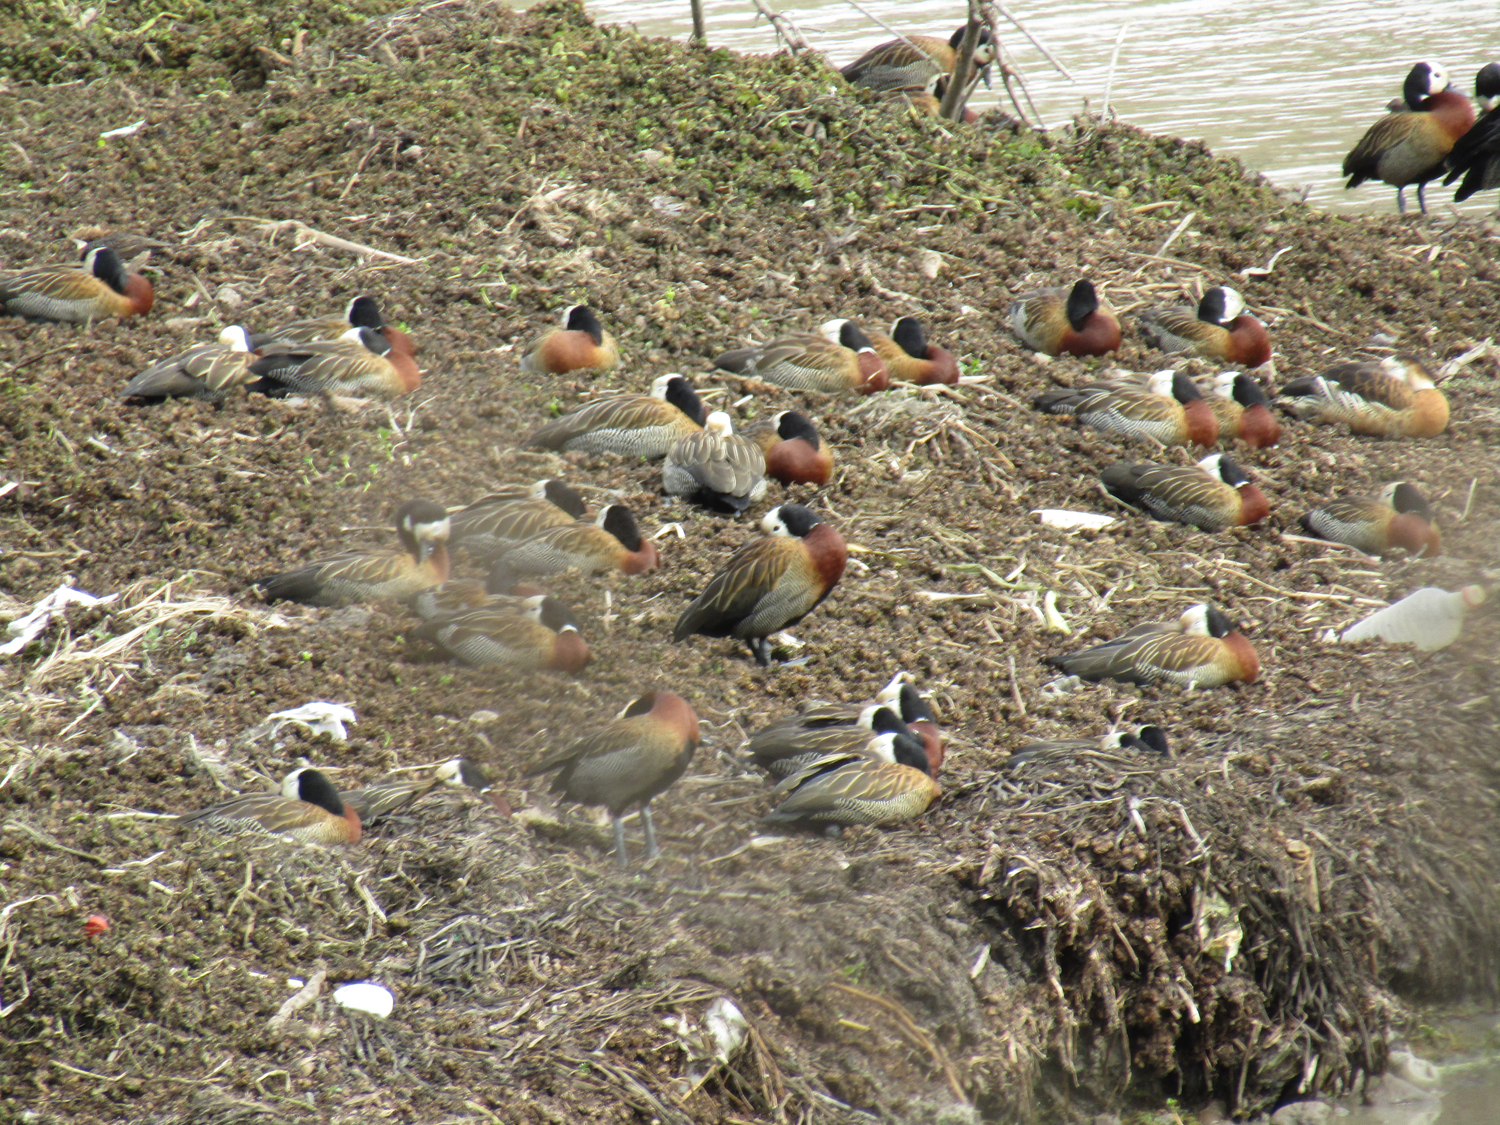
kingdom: Animalia
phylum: Chordata
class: Aves
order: Anseriformes
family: Anatidae
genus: Dendrocygna
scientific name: Dendrocygna viduata
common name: White-faced whistling duck
